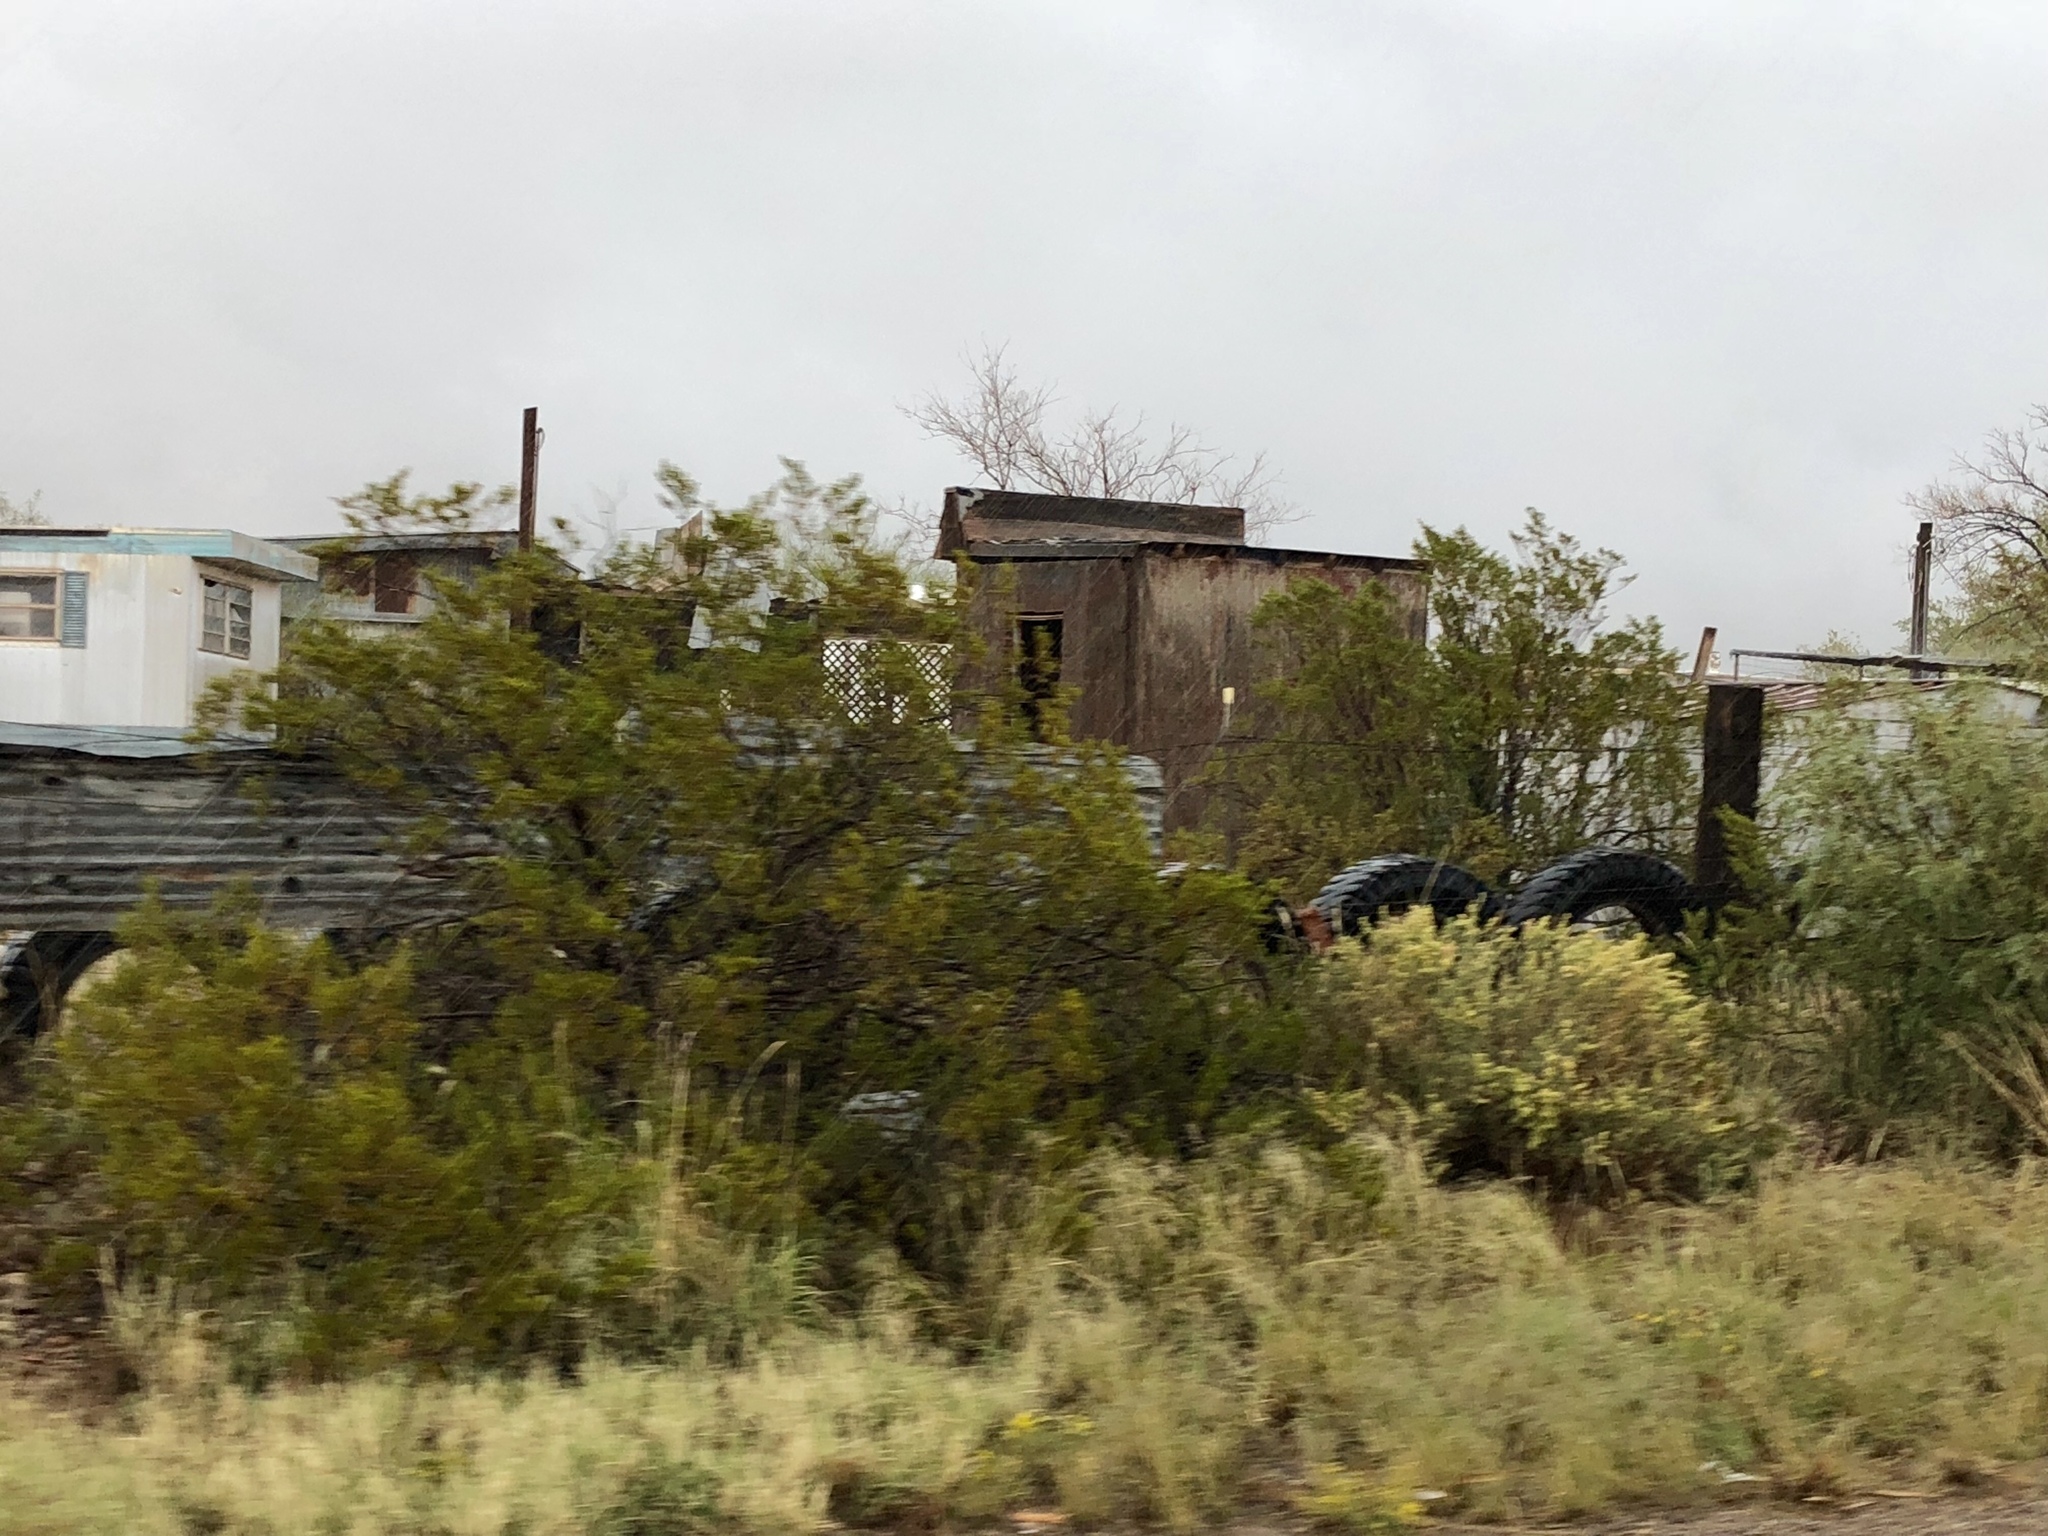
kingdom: Plantae
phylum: Tracheophyta
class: Magnoliopsida
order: Zygophyllales
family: Zygophyllaceae
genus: Larrea
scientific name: Larrea tridentata
